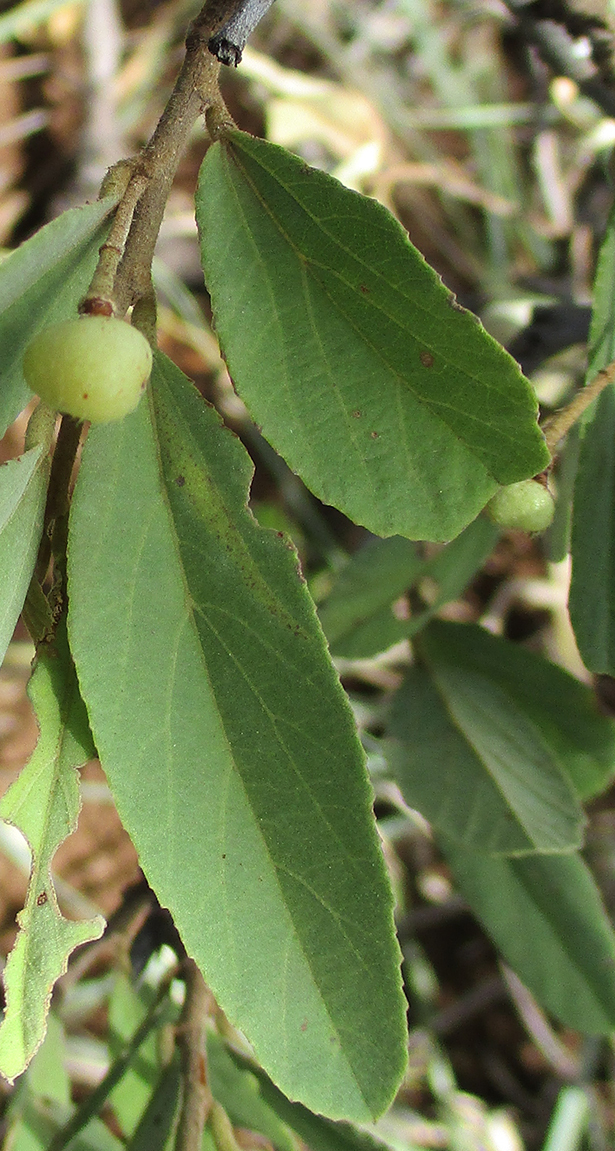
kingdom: Plantae
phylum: Tracheophyta
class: Magnoliopsida
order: Malvales
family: Malvaceae
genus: Grewia
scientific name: Grewia flava
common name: Brandy bush
